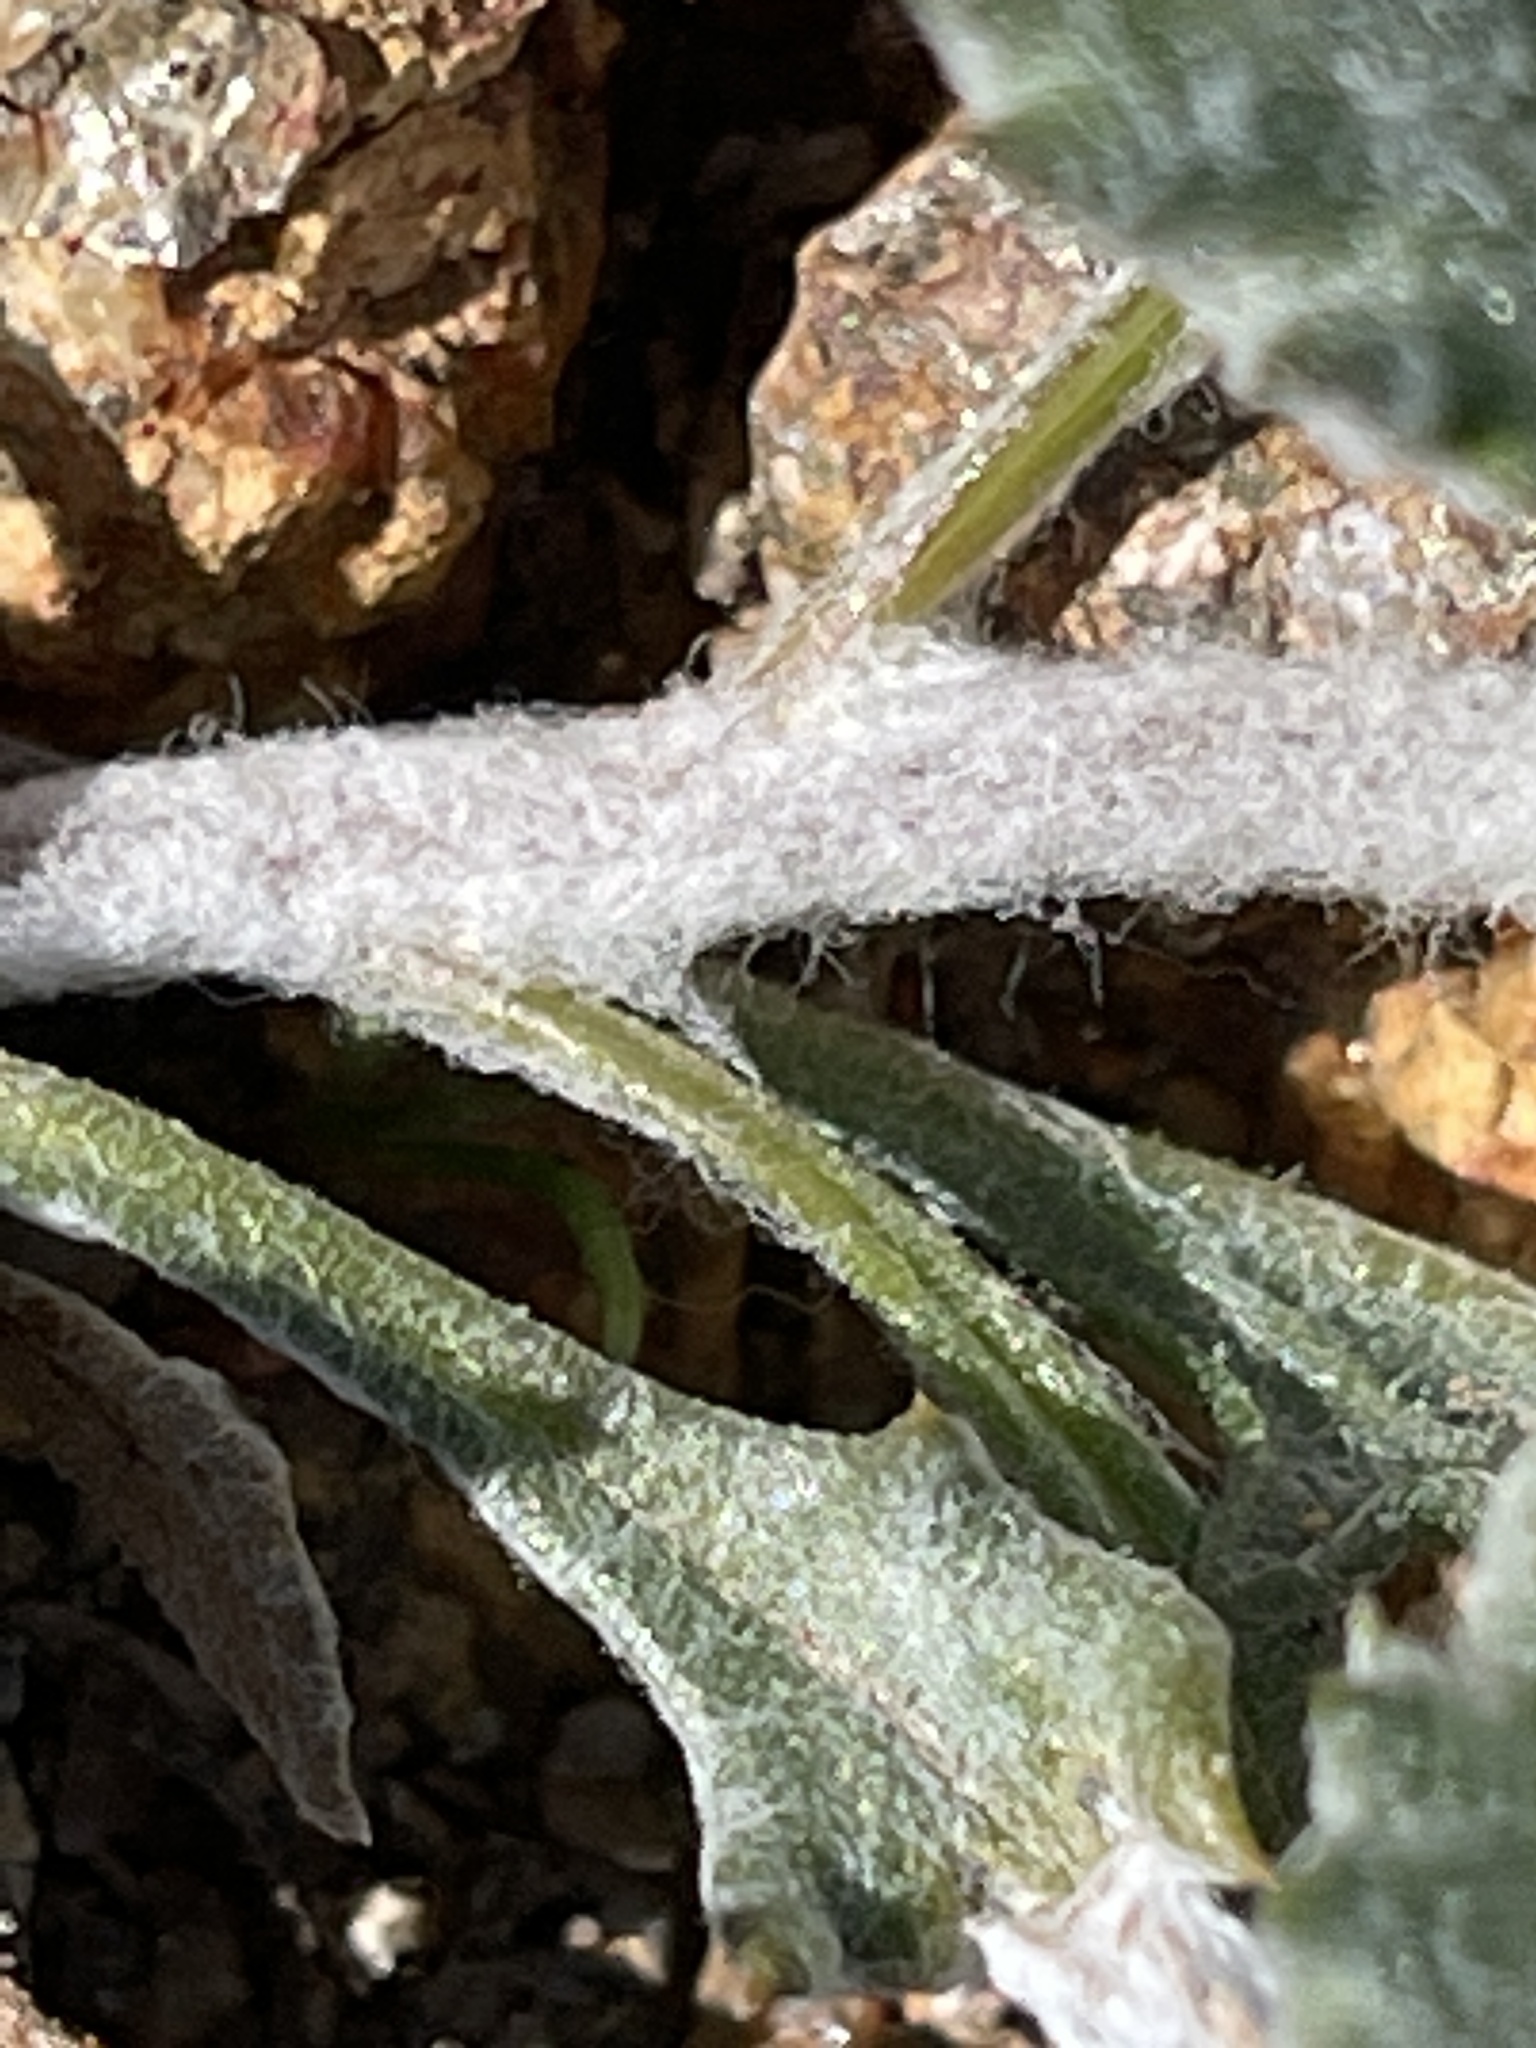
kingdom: Plantae
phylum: Tracheophyta
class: Magnoliopsida
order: Asterales
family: Asteraceae
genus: Trichoptilium
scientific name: Trichoptilium incisum
